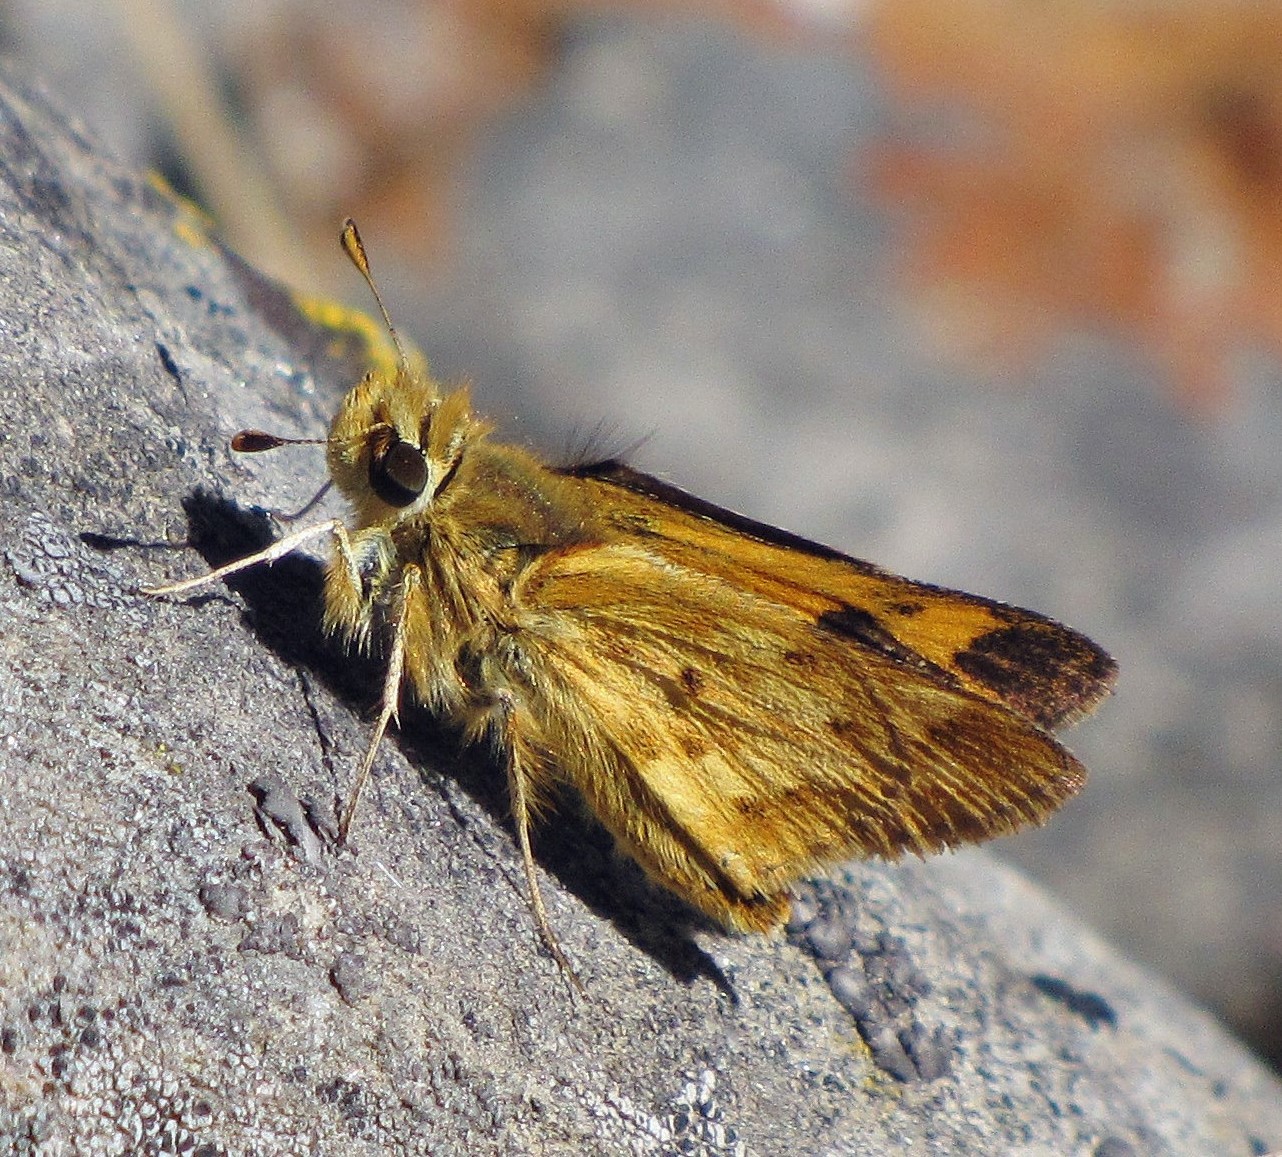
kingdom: Animalia
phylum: Arthropoda
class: Insecta
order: Lepidoptera
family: Hesperiidae
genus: Hylephila
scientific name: Hylephila phyleus
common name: Fiery skipper
